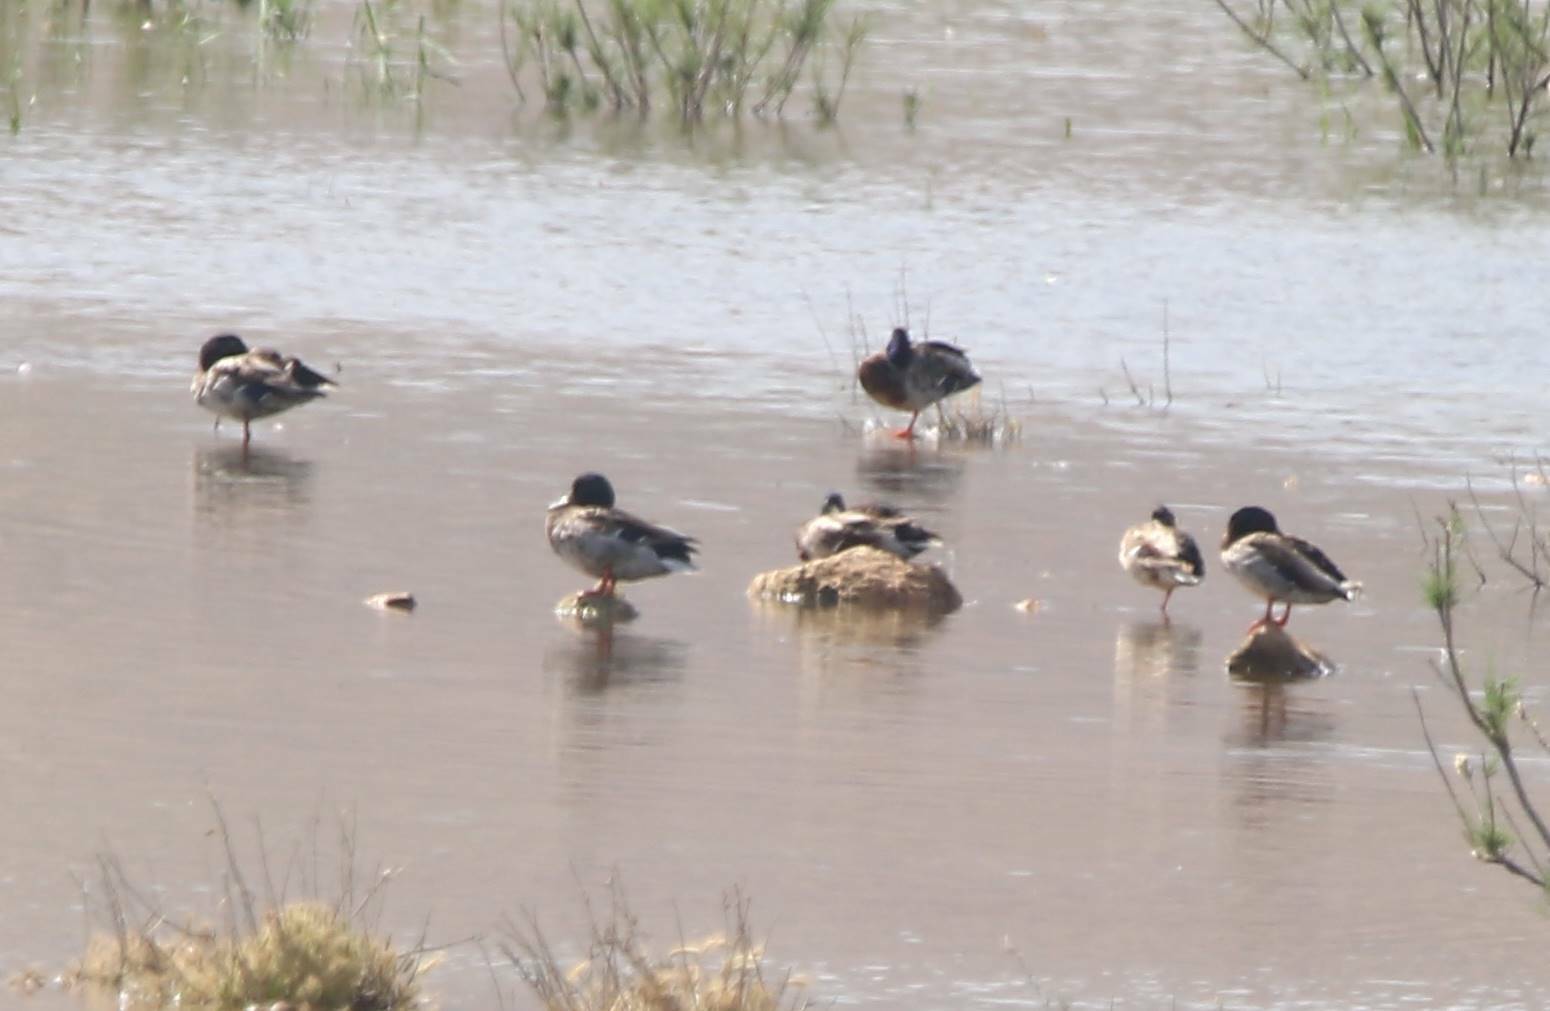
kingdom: Animalia
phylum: Chordata
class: Aves
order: Anseriformes
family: Anatidae
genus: Anas
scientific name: Anas platyrhynchos
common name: Mallard
